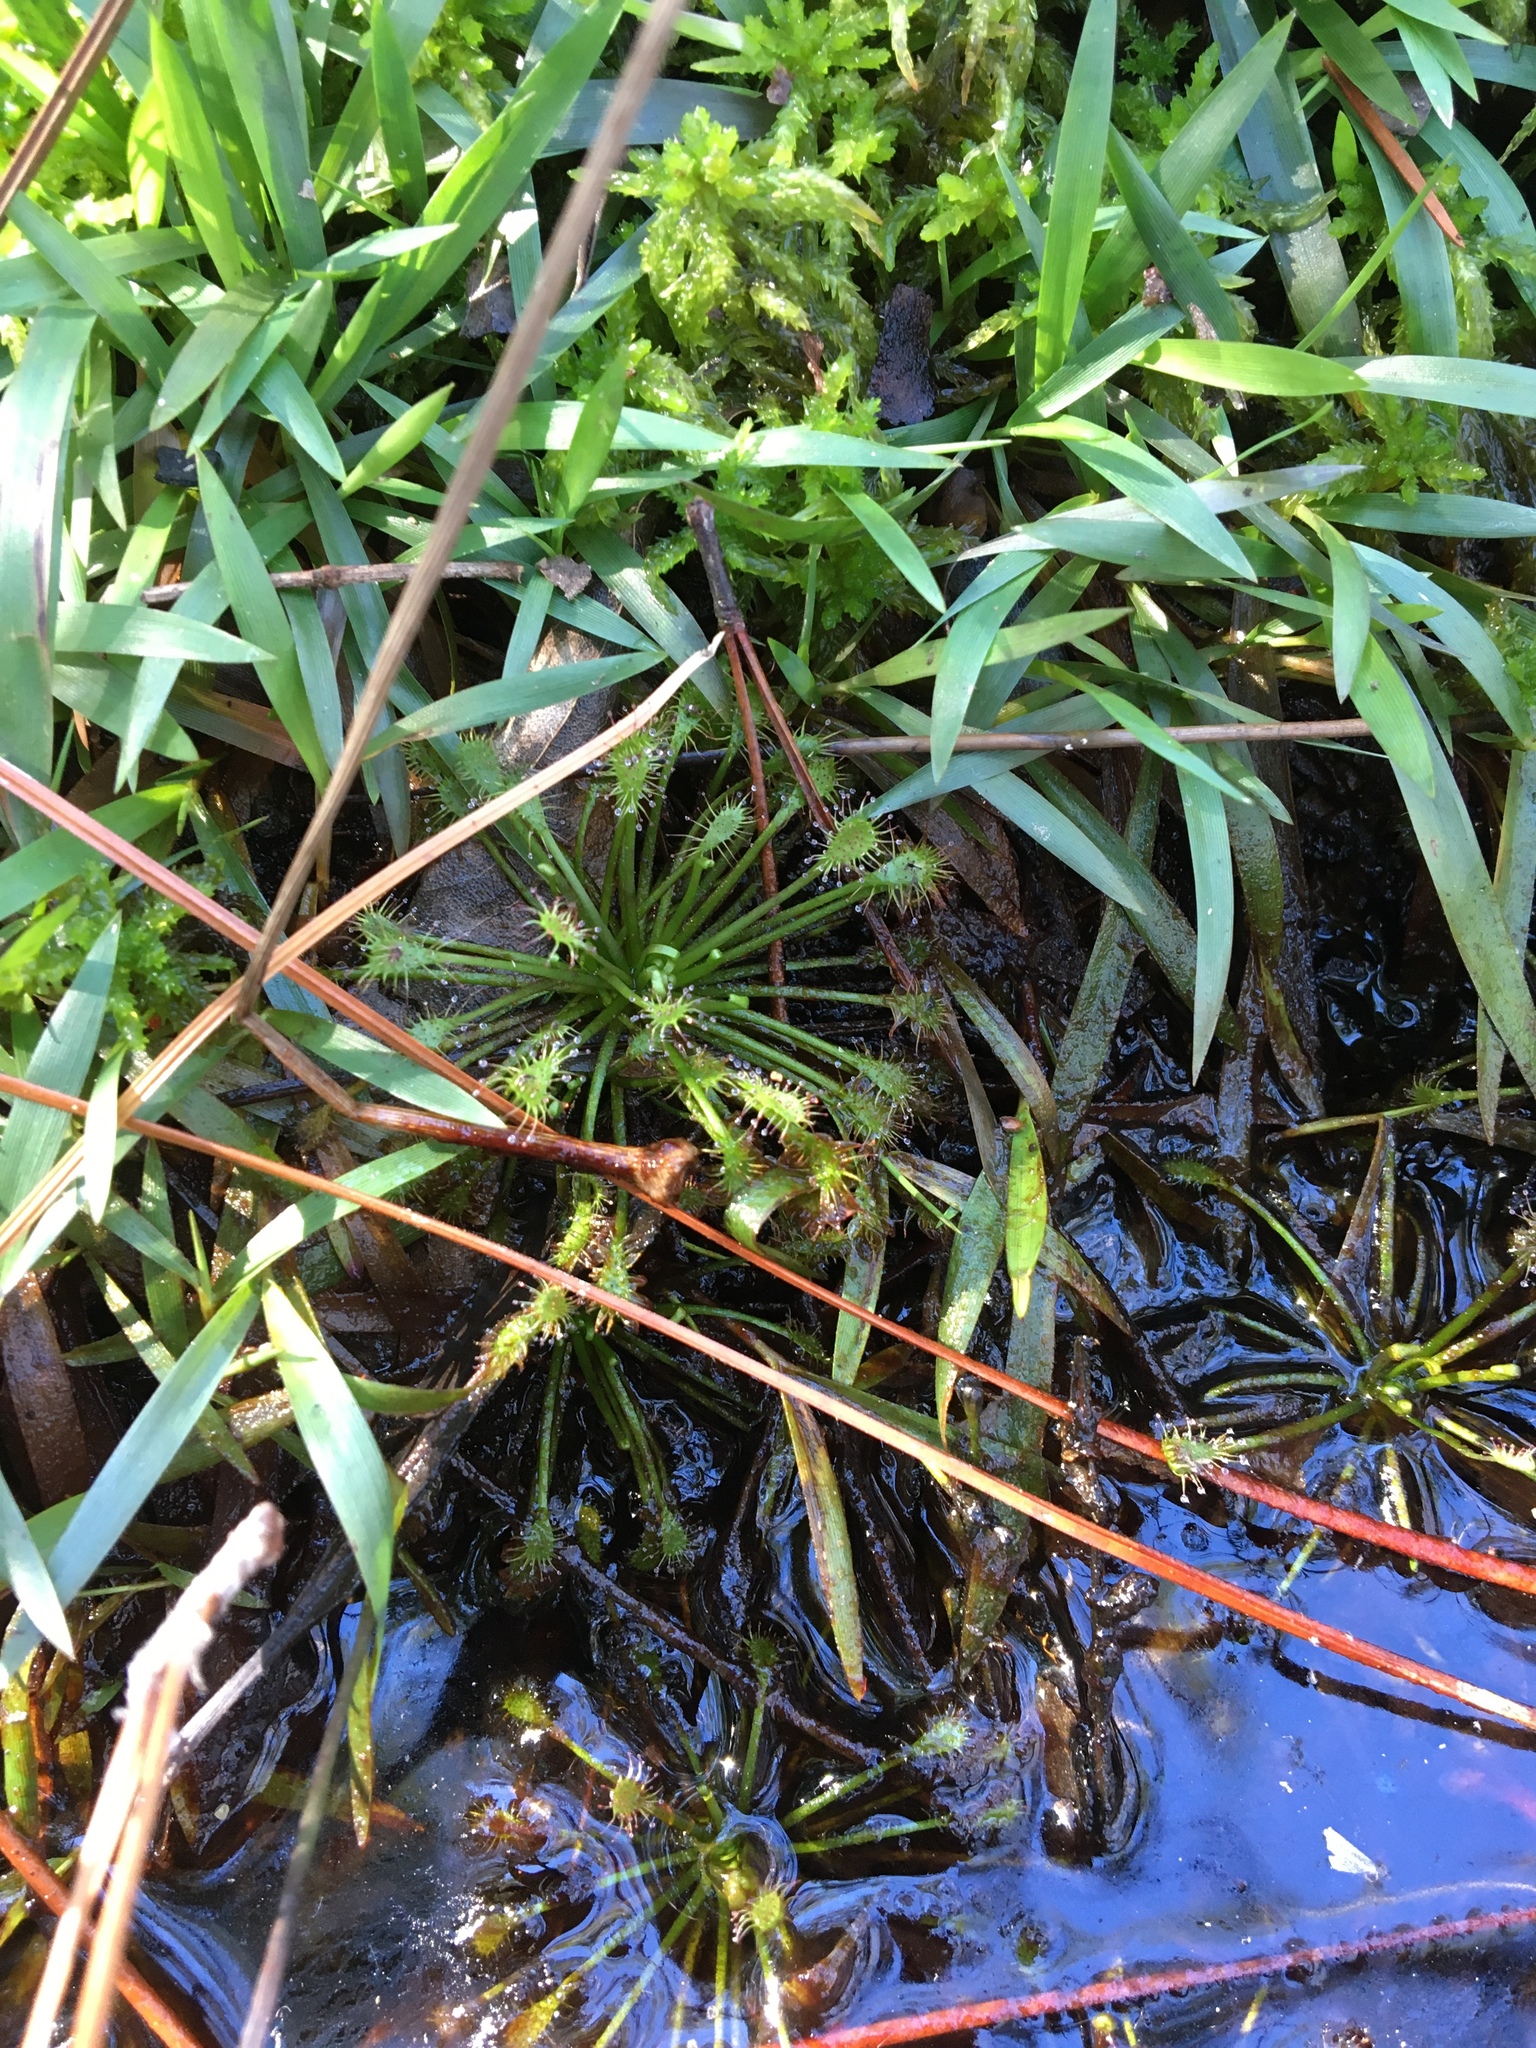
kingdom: Plantae
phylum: Tracheophyta
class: Magnoliopsida
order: Caryophyllales
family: Droseraceae
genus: Drosera
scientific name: Drosera intermedia
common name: Oblong-leaved sundew
